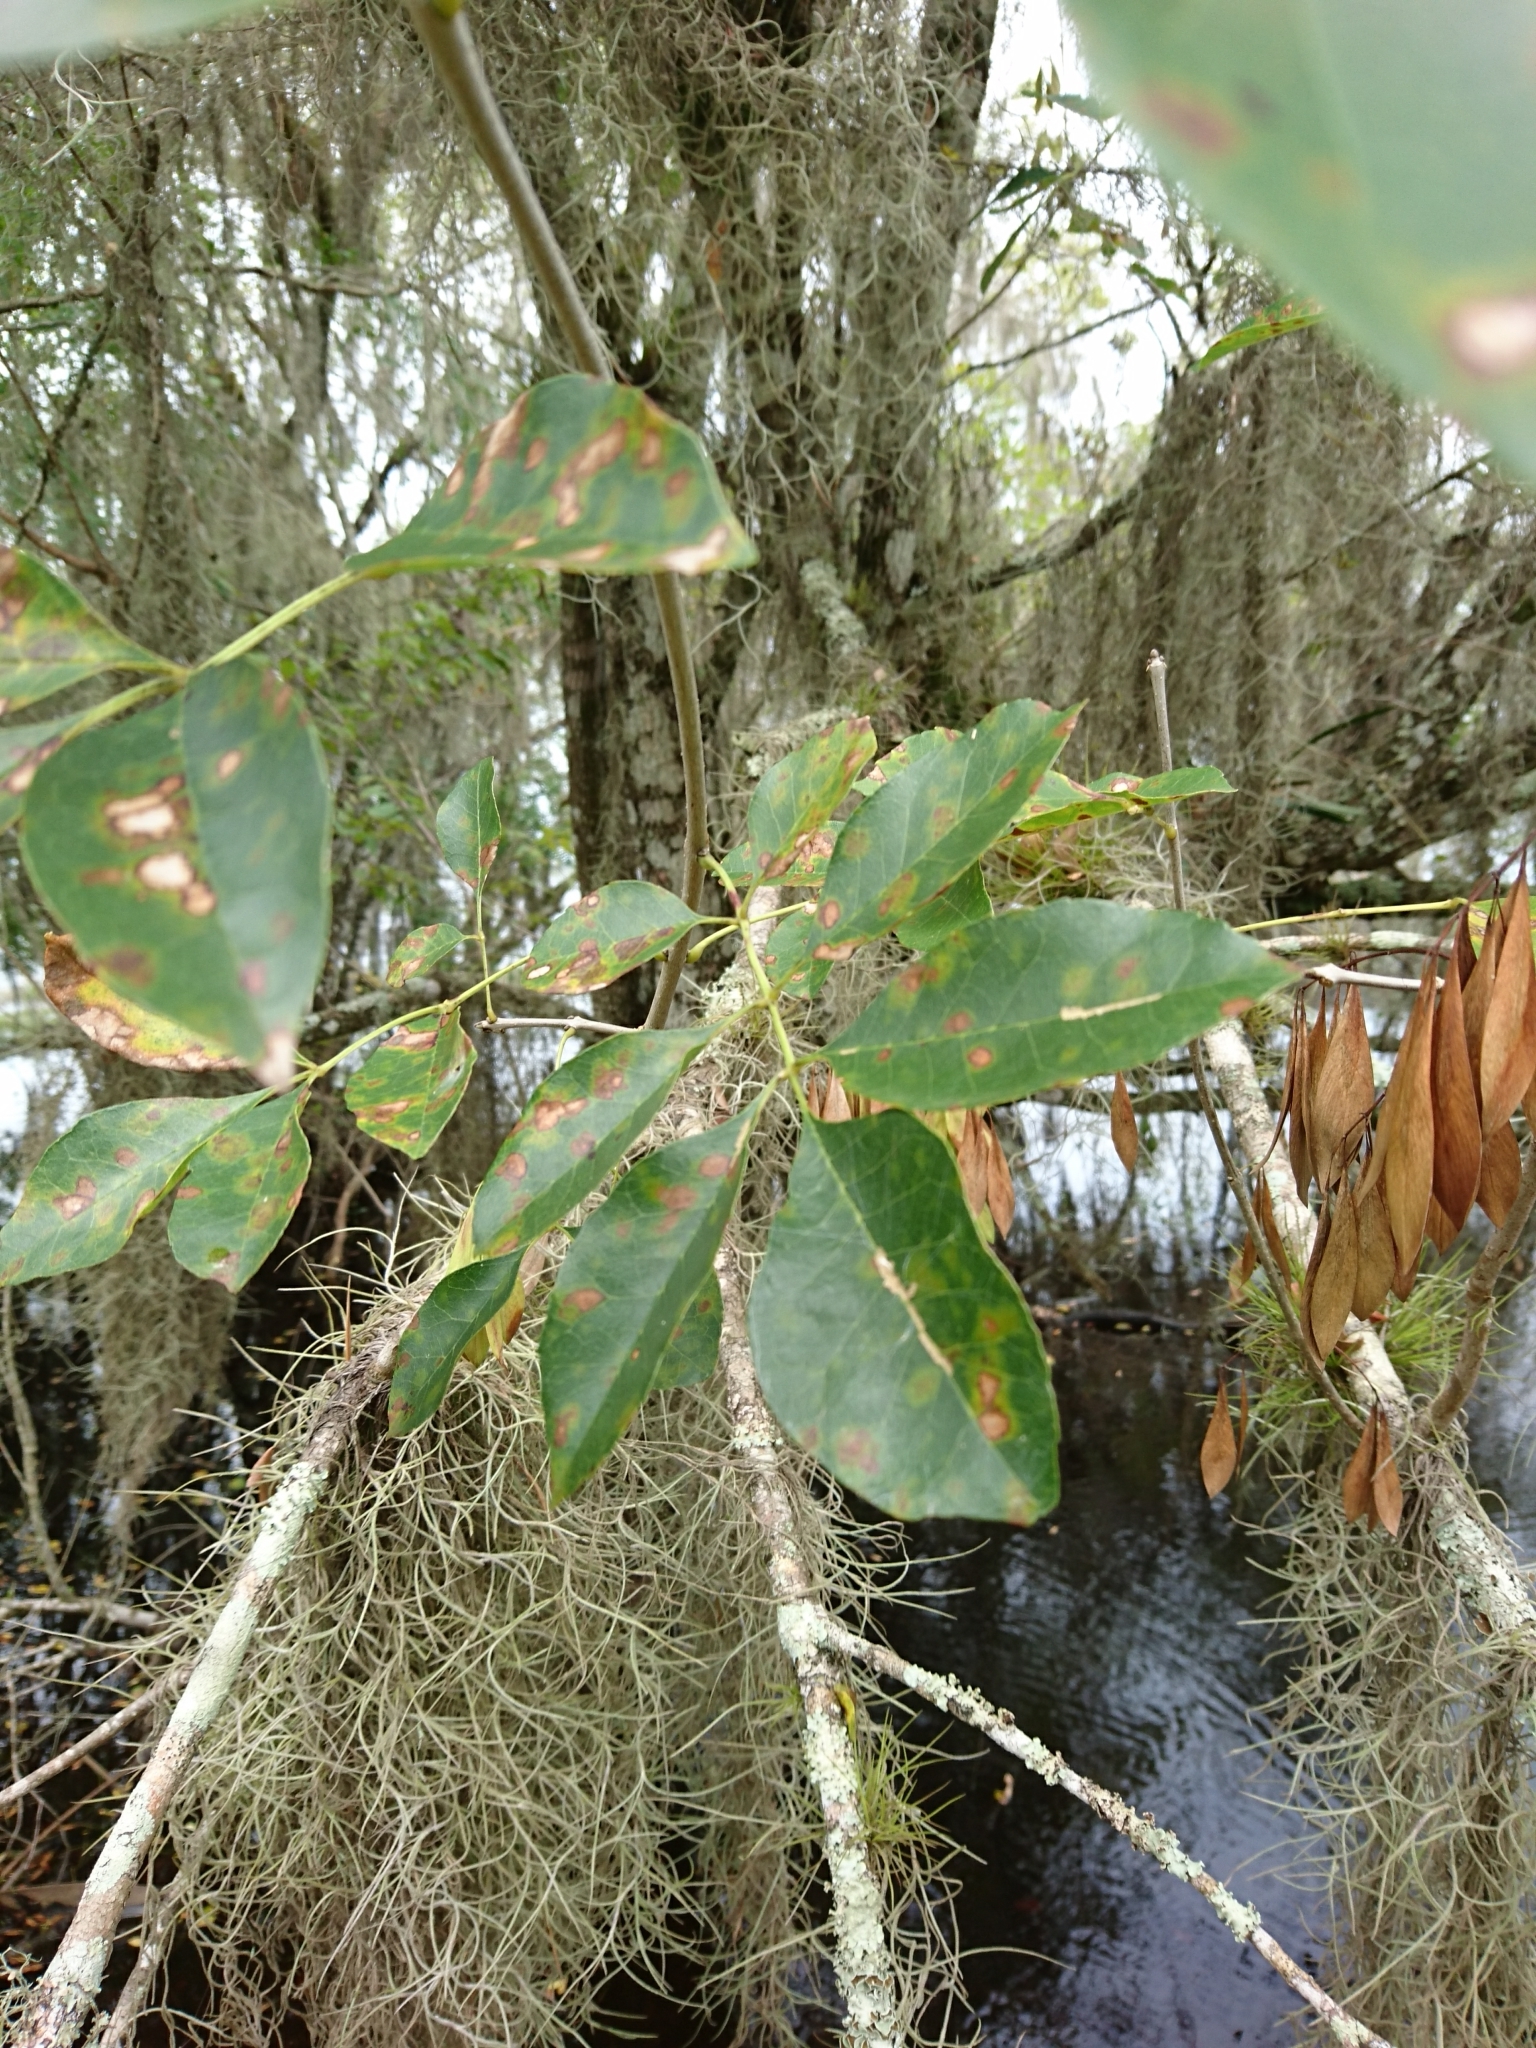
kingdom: Plantae
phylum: Tracheophyta
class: Magnoliopsida
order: Lamiales
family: Oleaceae
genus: Fraxinus
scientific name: Fraxinus caroliniana
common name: Carolina ash
